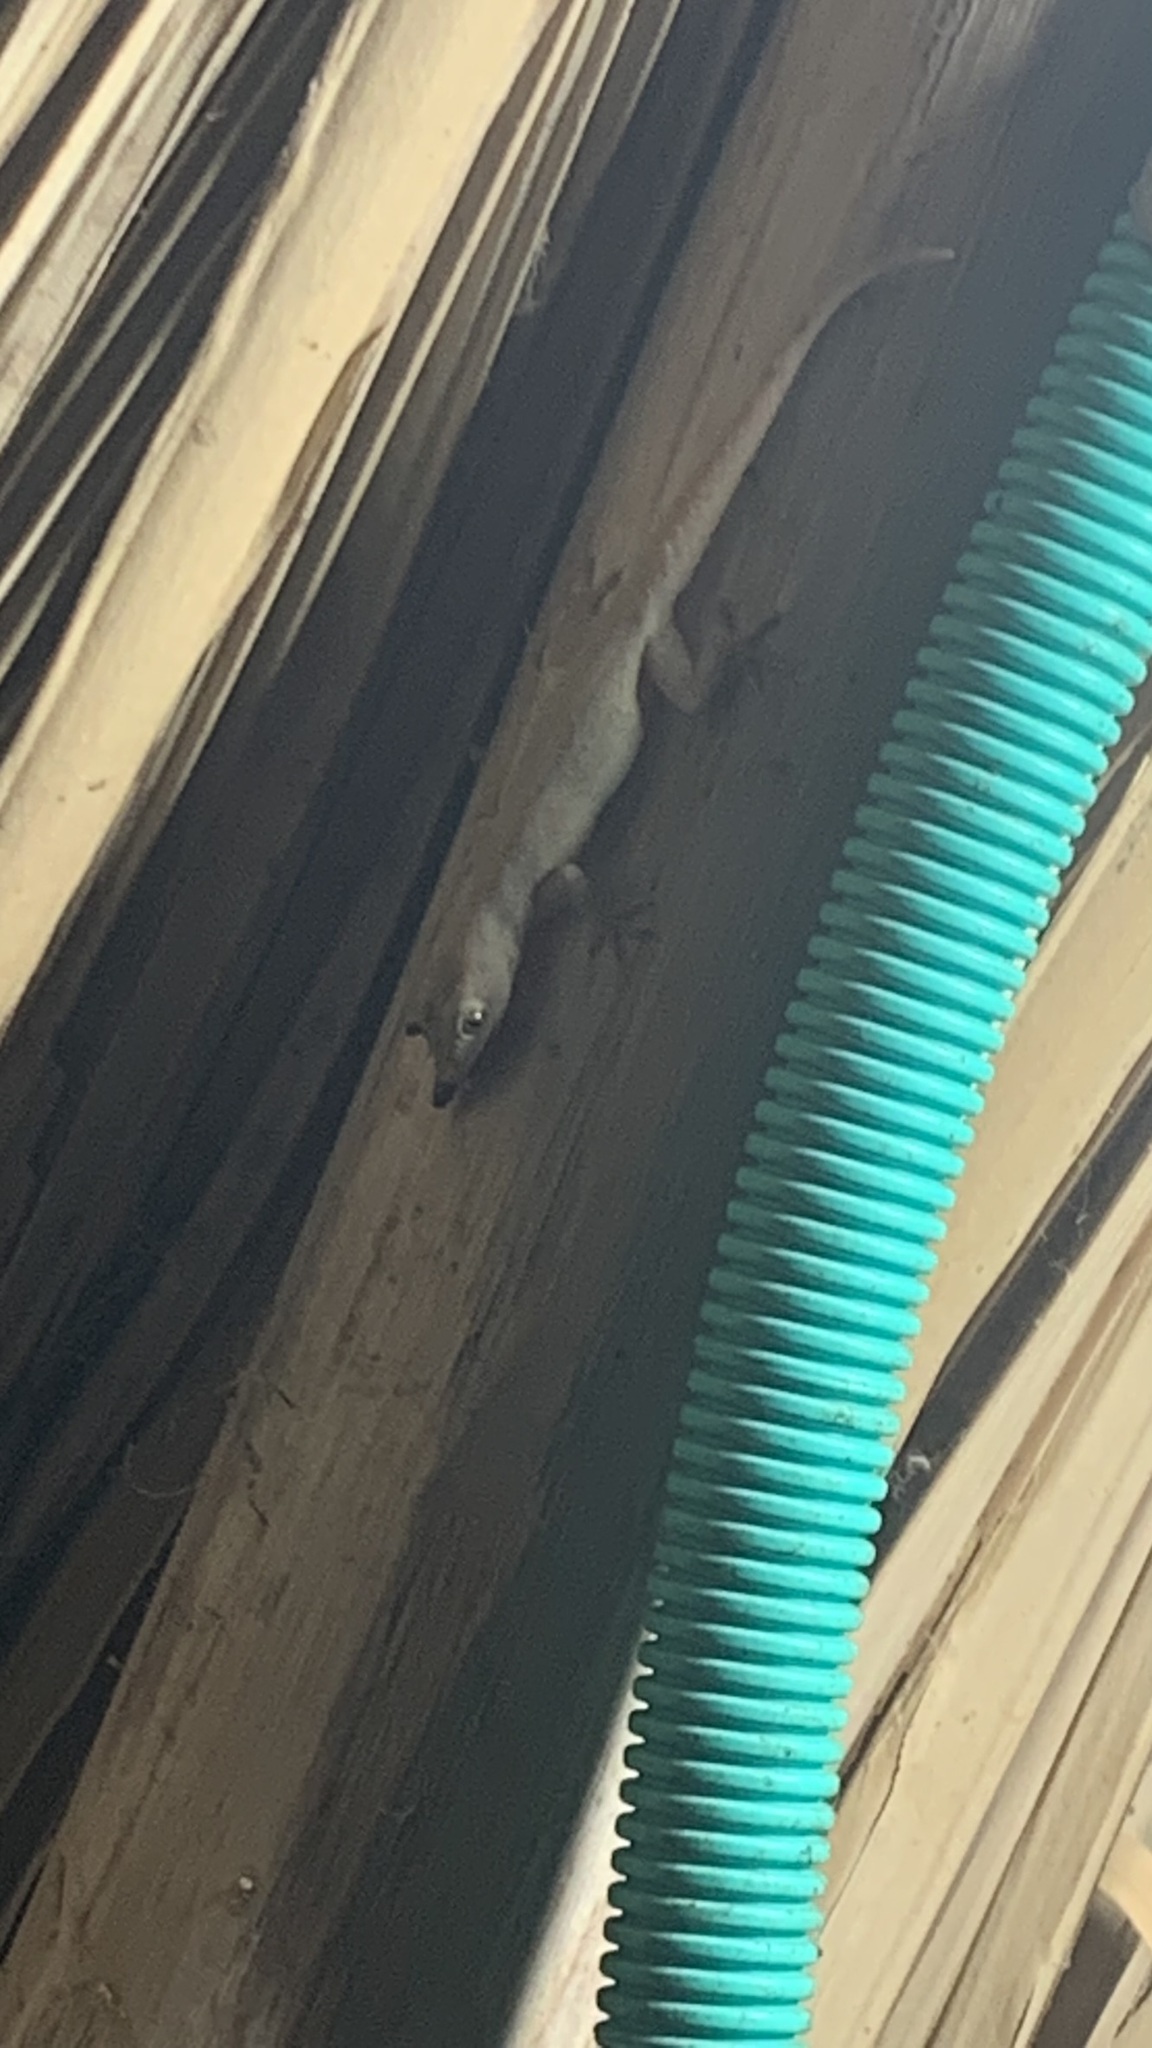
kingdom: Animalia
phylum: Chordata
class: Squamata
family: Gekkonidae
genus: Hemidactylus
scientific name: Hemidactylus frenatus
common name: Common house gecko
